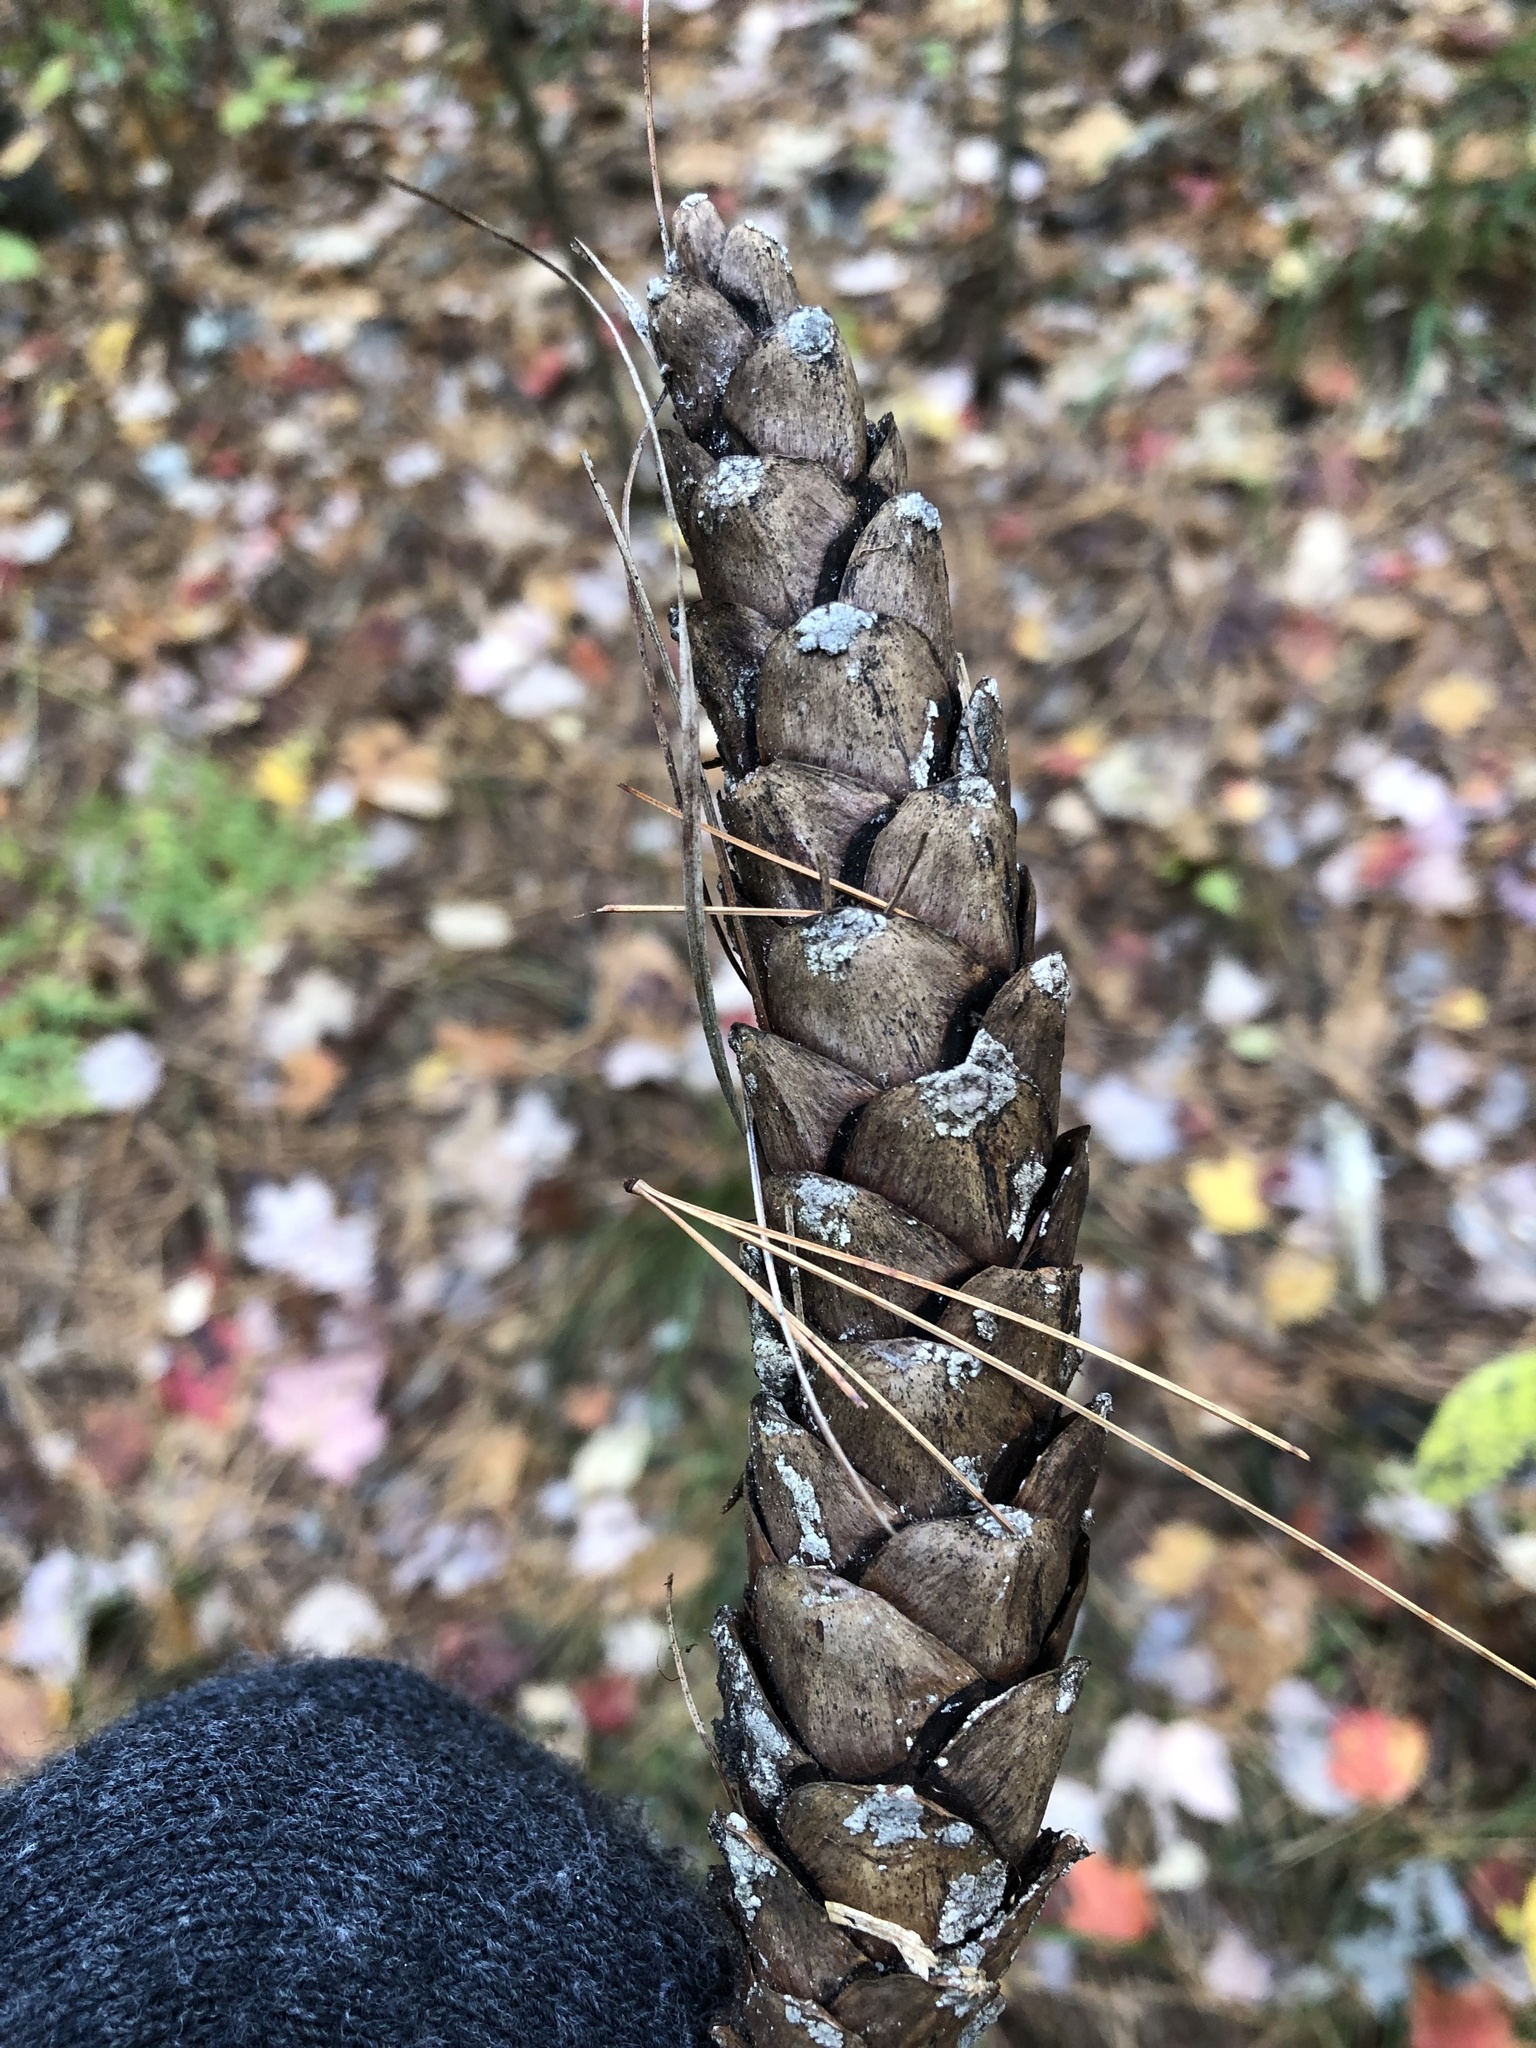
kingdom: Plantae
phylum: Tracheophyta
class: Pinopsida
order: Pinales
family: Pinaceae
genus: Pinus
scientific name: Pinus strobus
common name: Weymouth pine
